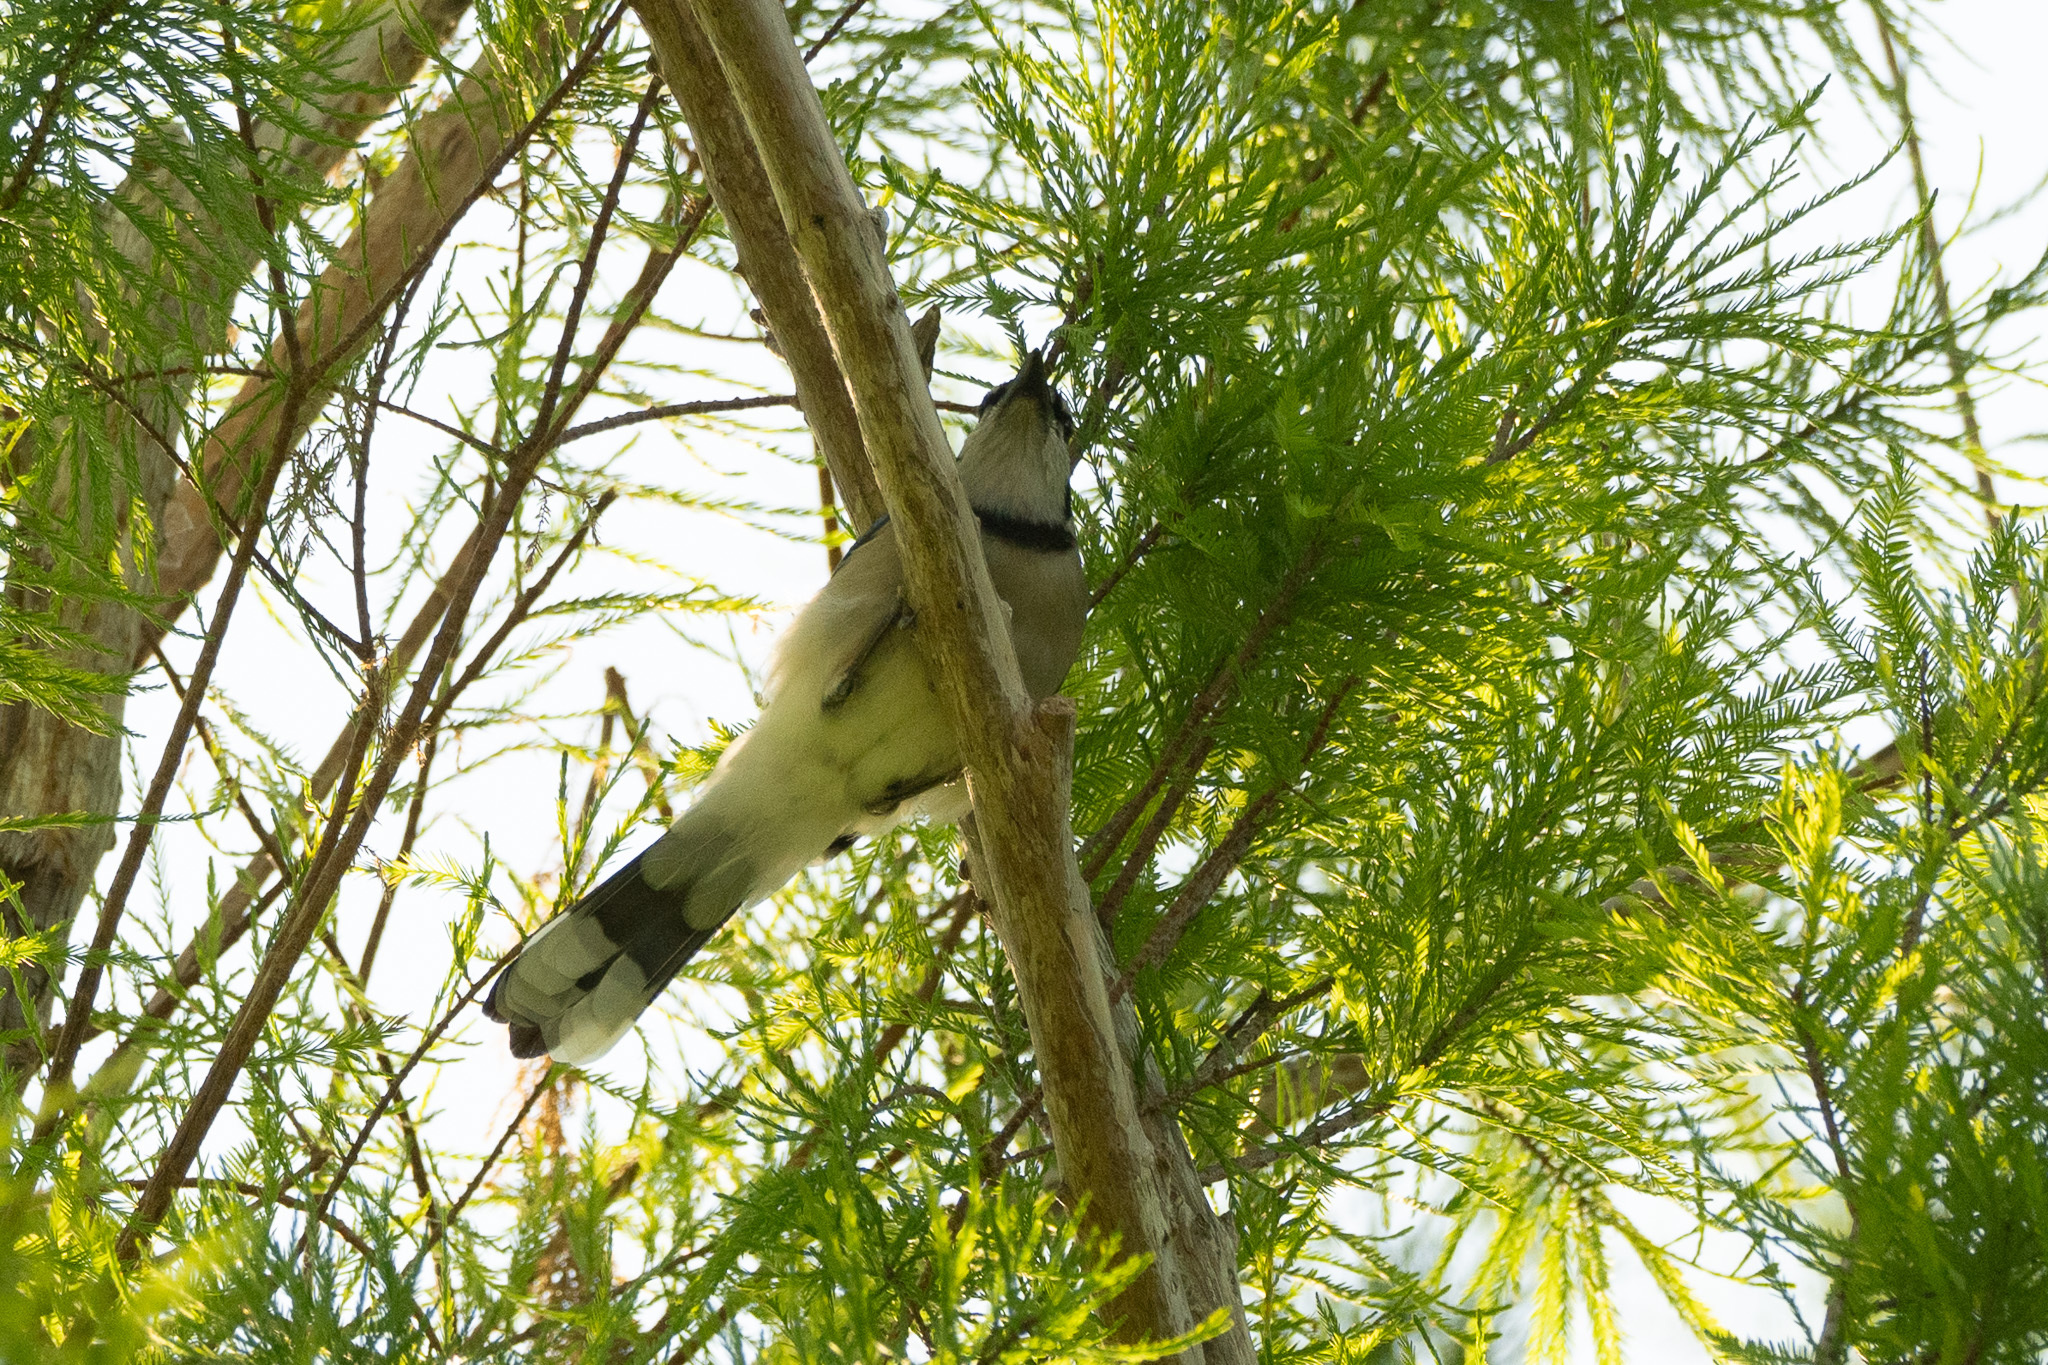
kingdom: Animalia
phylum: Chordata
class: Aves
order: Passeriformes
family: Corvidae
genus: Cyanocitta
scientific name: Cyanocitta cristata
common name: Blue jay
